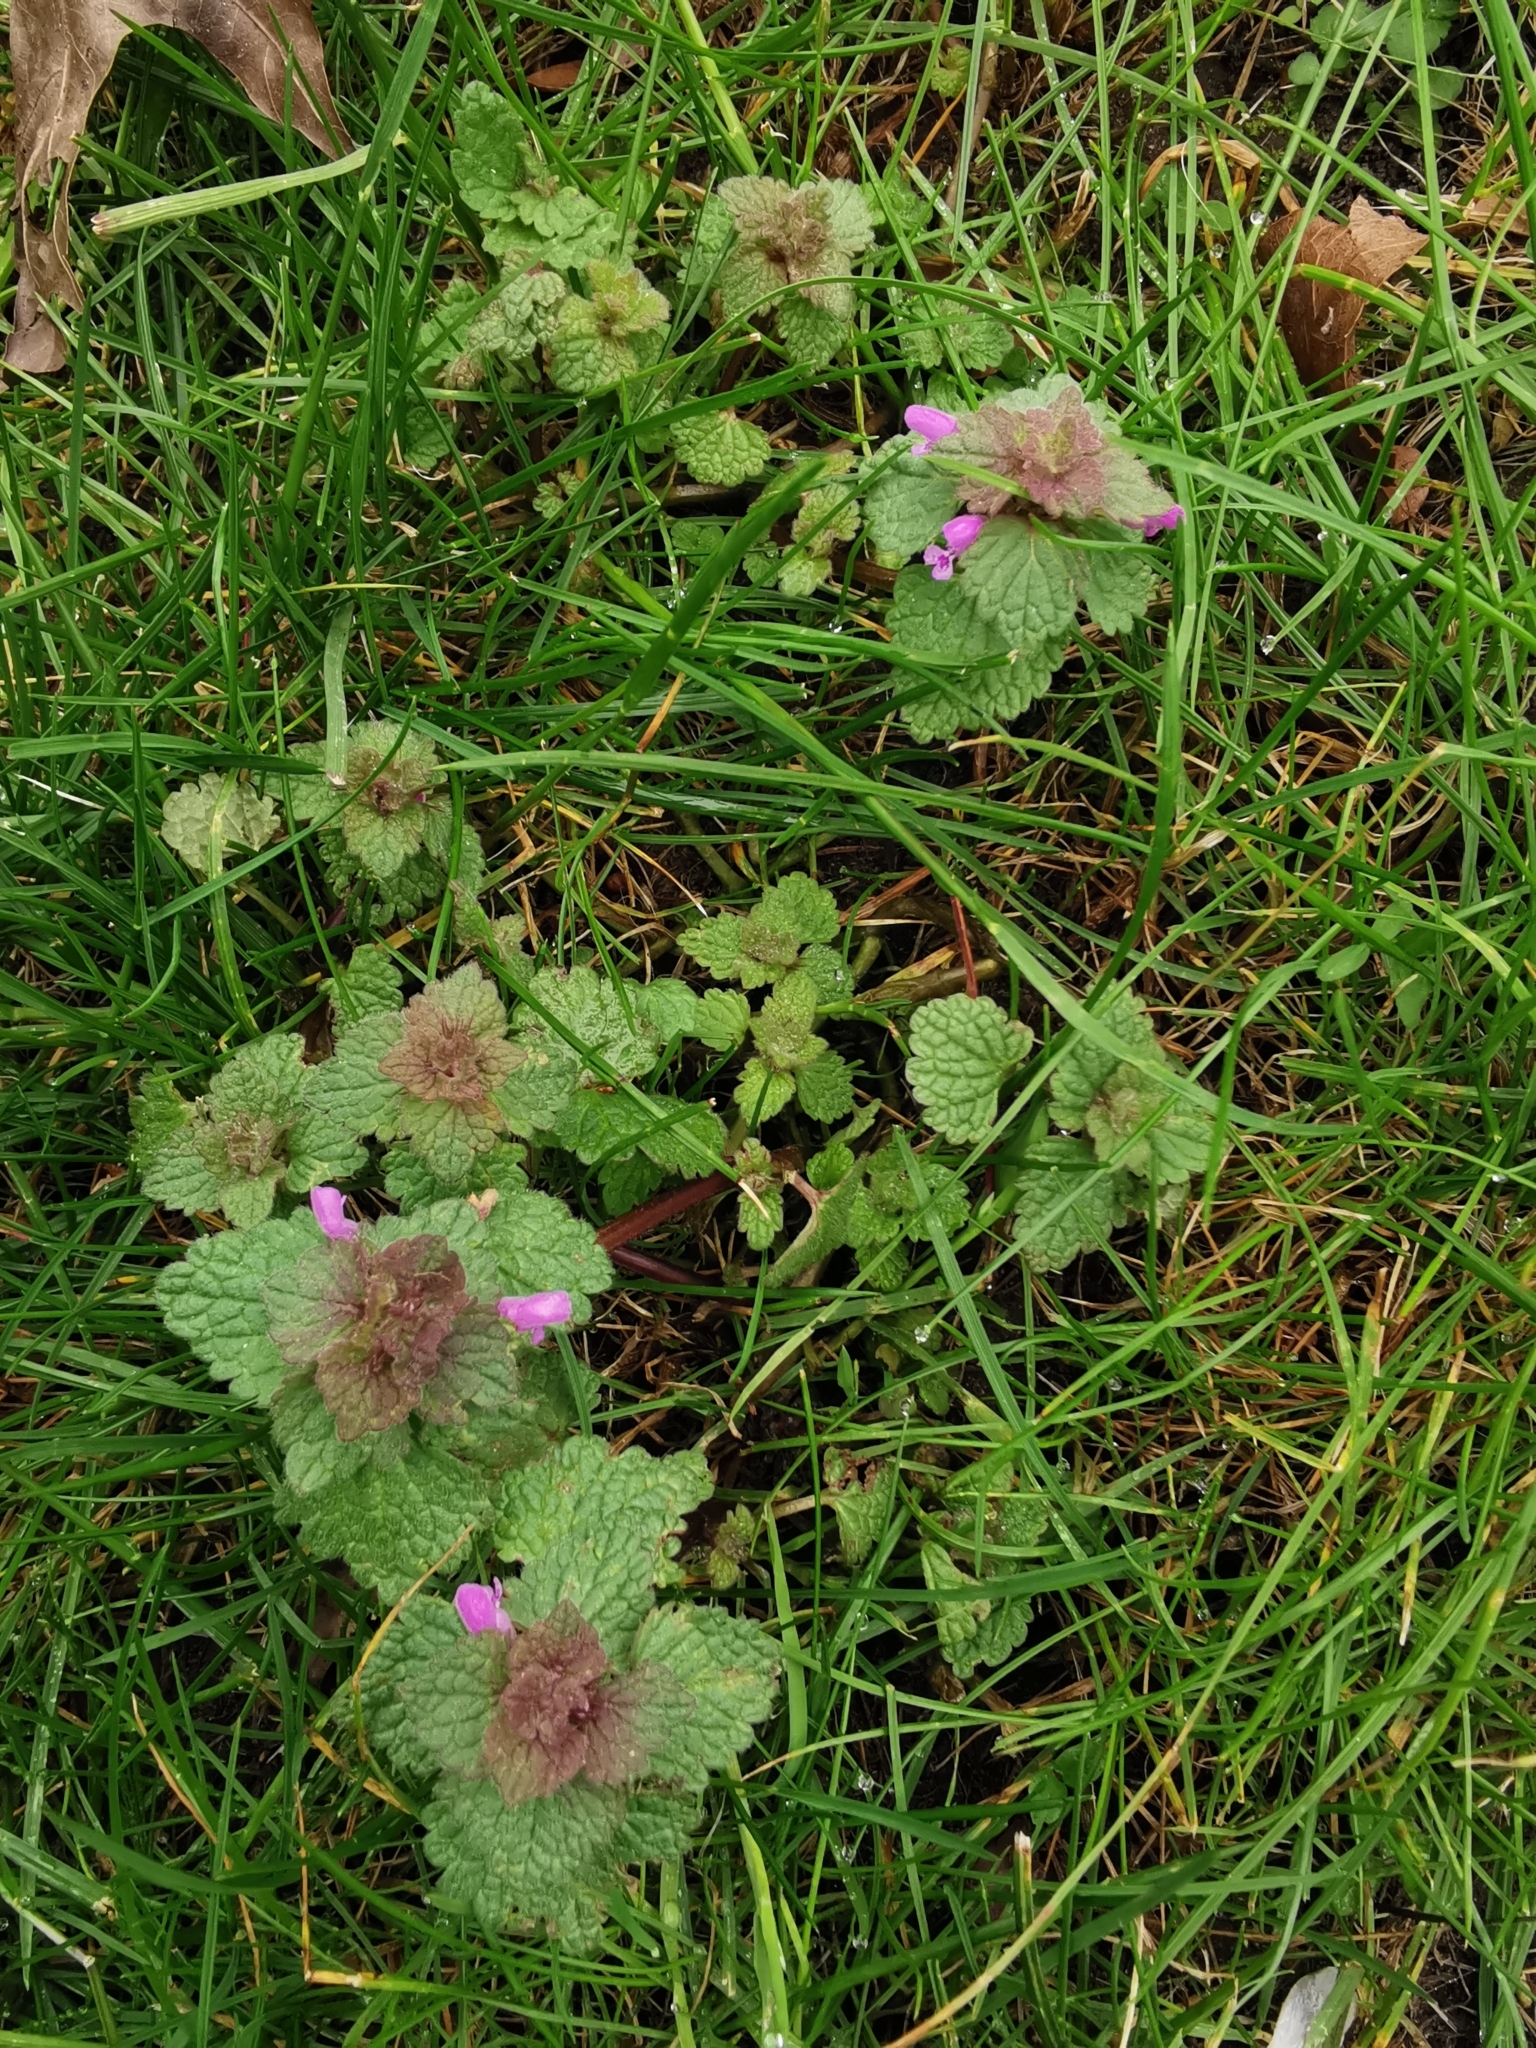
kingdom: Plantae
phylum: Tracheophyta
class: Magnoliopsida
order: Lamiales
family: Lamiaceae
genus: Lamium
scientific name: Lamium purpureum
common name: Red dead-nettle
